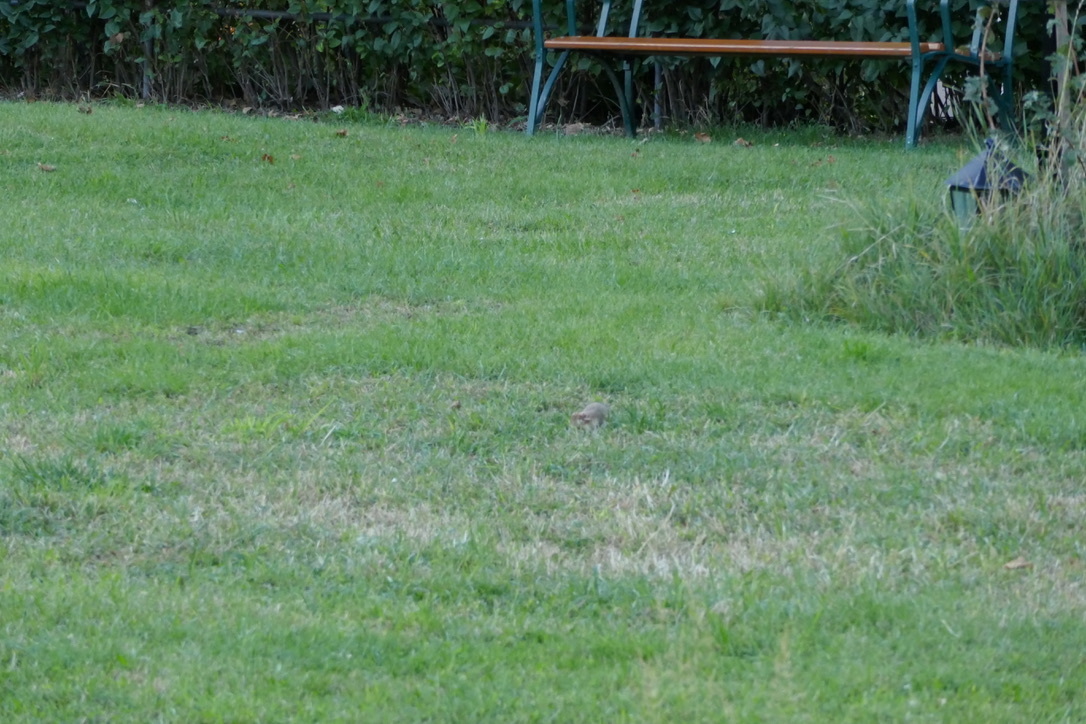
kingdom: Animalia
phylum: Chordata
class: Mammalia
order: Rodentia
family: Cricetidae
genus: Cricetus
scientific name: Cricetus cricetus
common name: Common hamster
